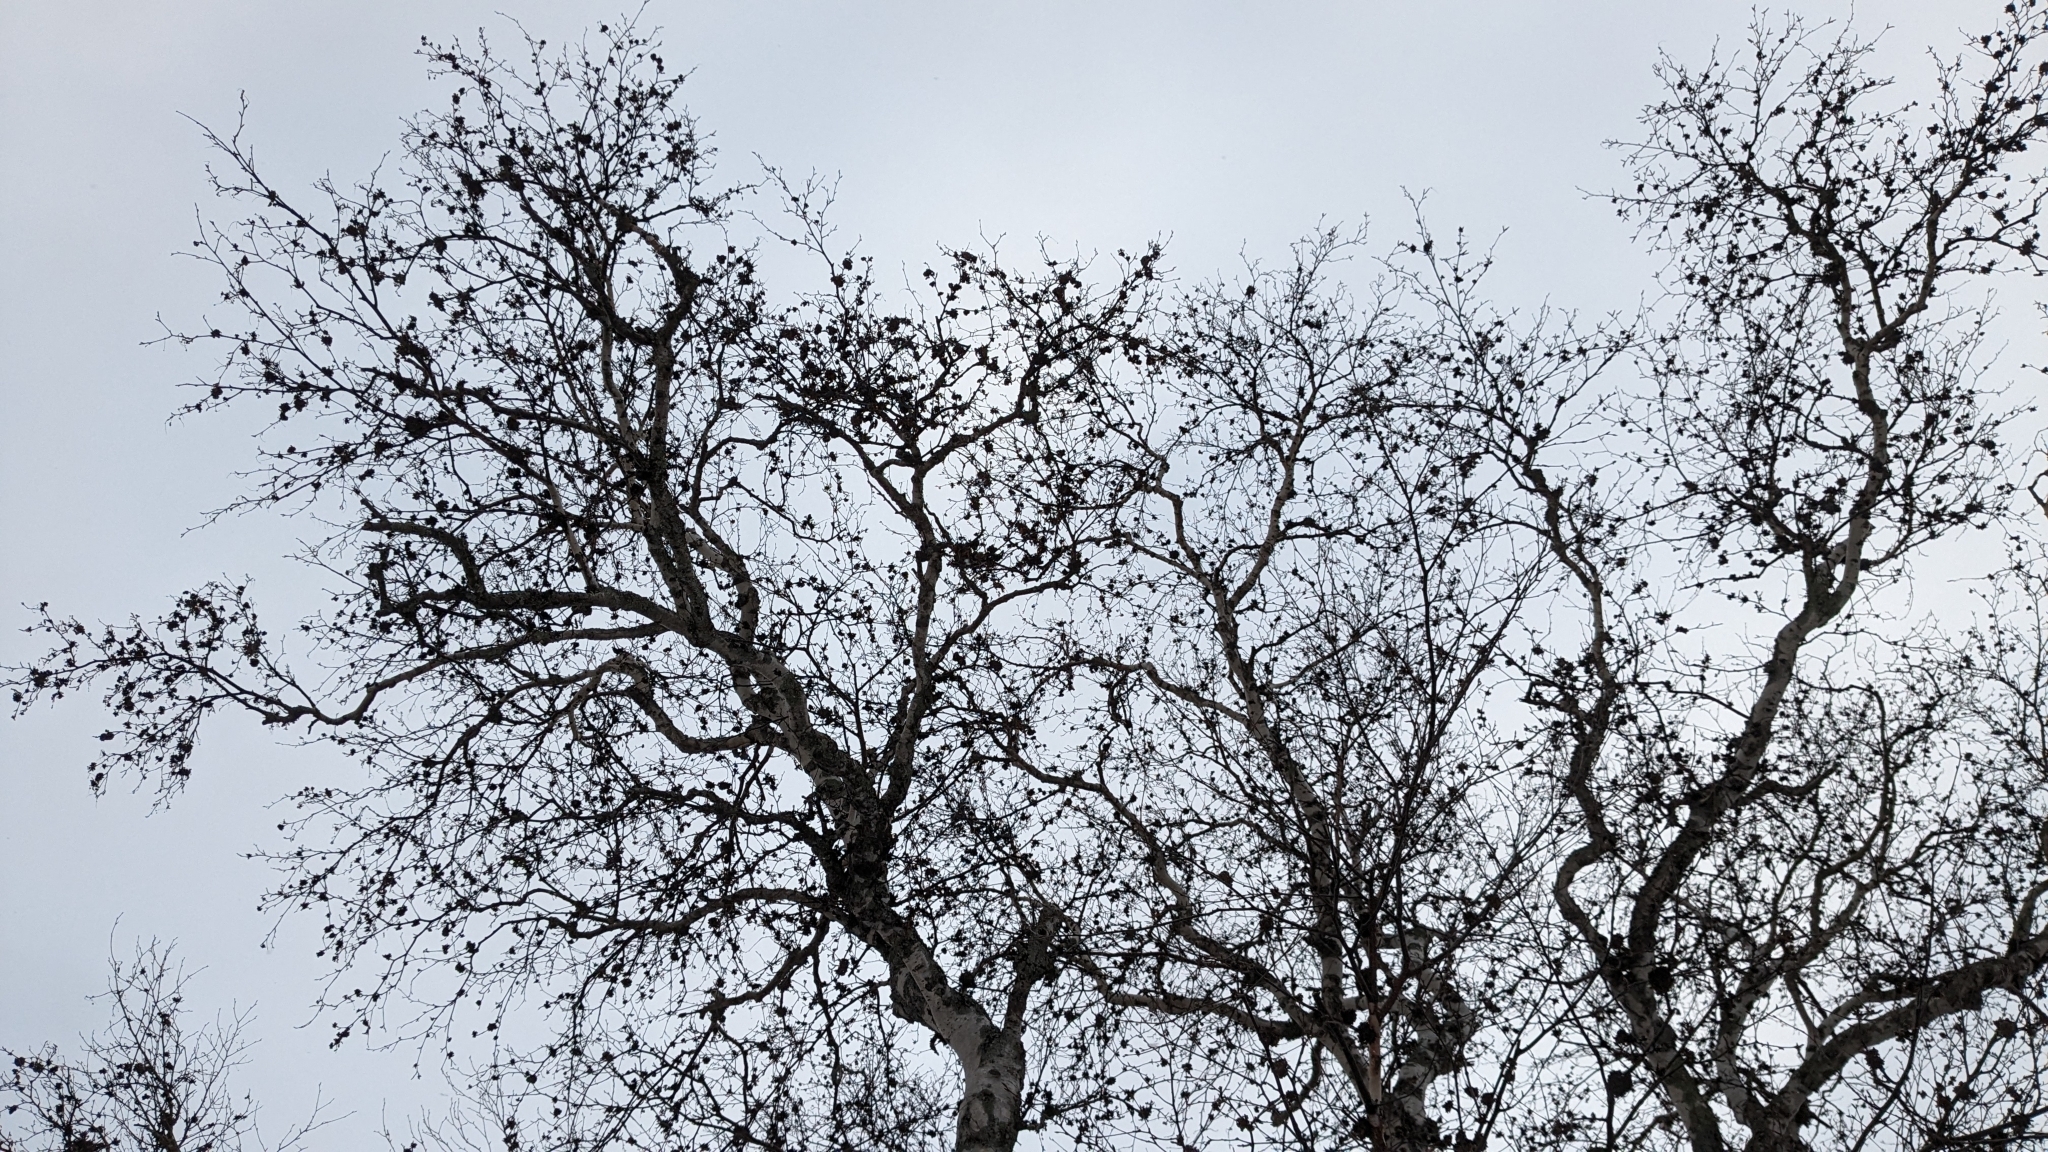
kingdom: Animalia
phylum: Arthropoda
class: Arachnida
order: Trombidiformes
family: Eriophyidae
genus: Aceria
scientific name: Aceria fraxiniflora
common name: Ash flower gall mite
